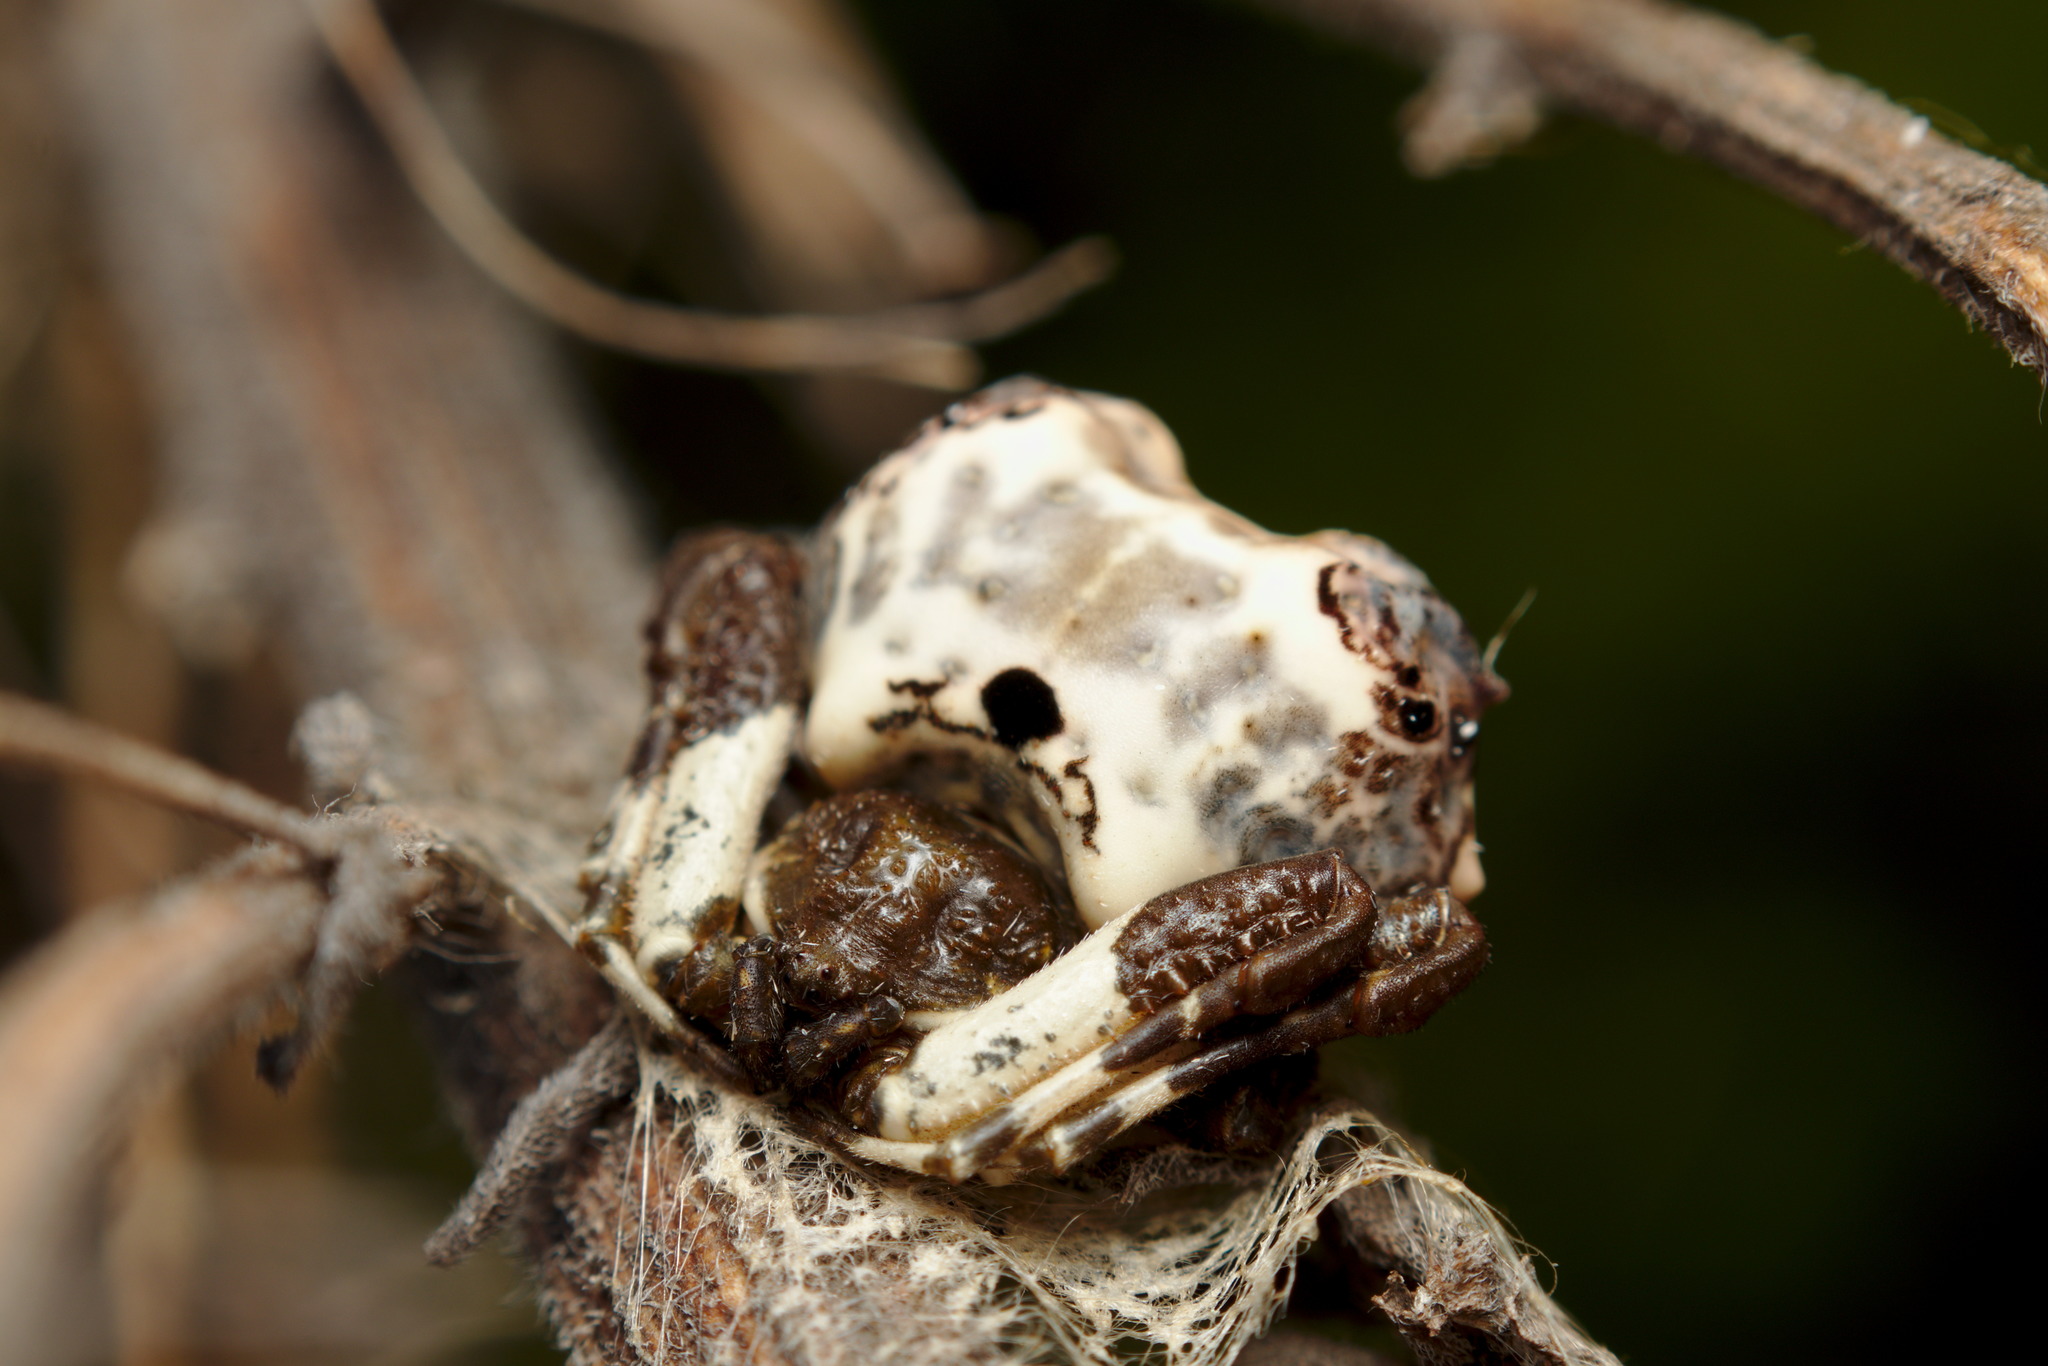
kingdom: Animalia
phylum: Arthropoda
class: Arachnida
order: Araneae
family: Araneidae
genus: Celaenia
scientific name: Celaenia excavata
